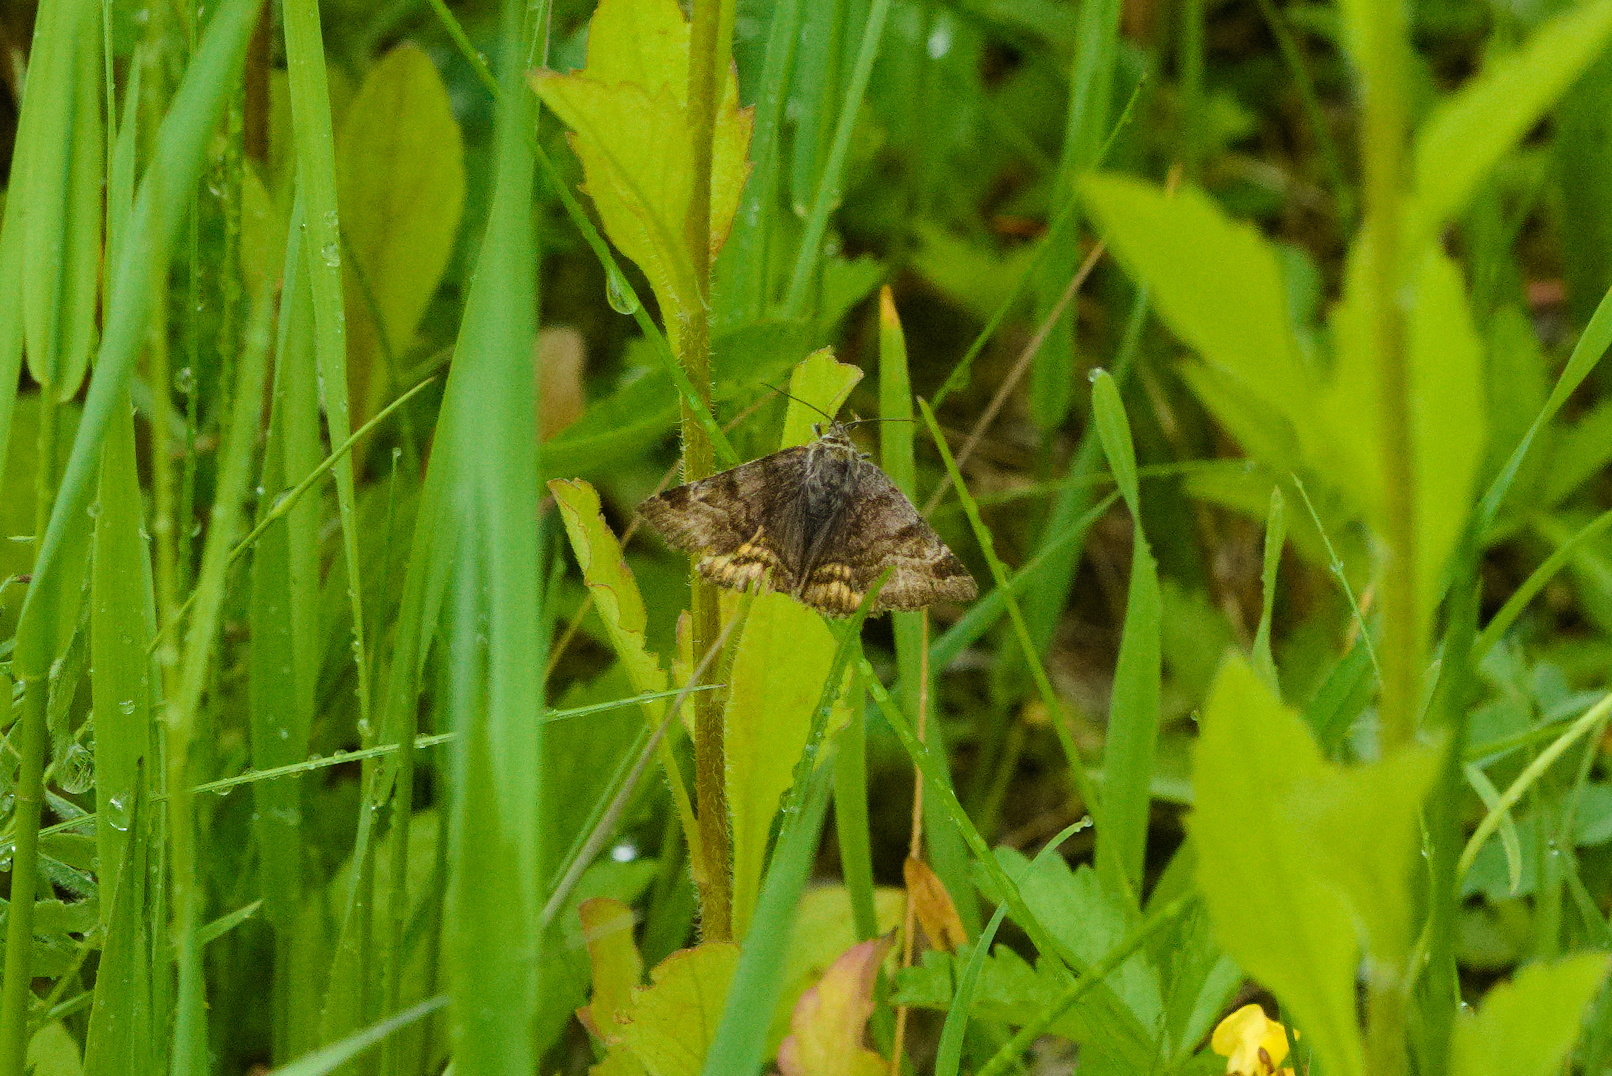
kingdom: Animalia
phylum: Arthropoda
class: Insecta
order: Lepidoptera
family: Erebidae
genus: Euclidia
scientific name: Euclidia glyphica
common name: Burnet companion
